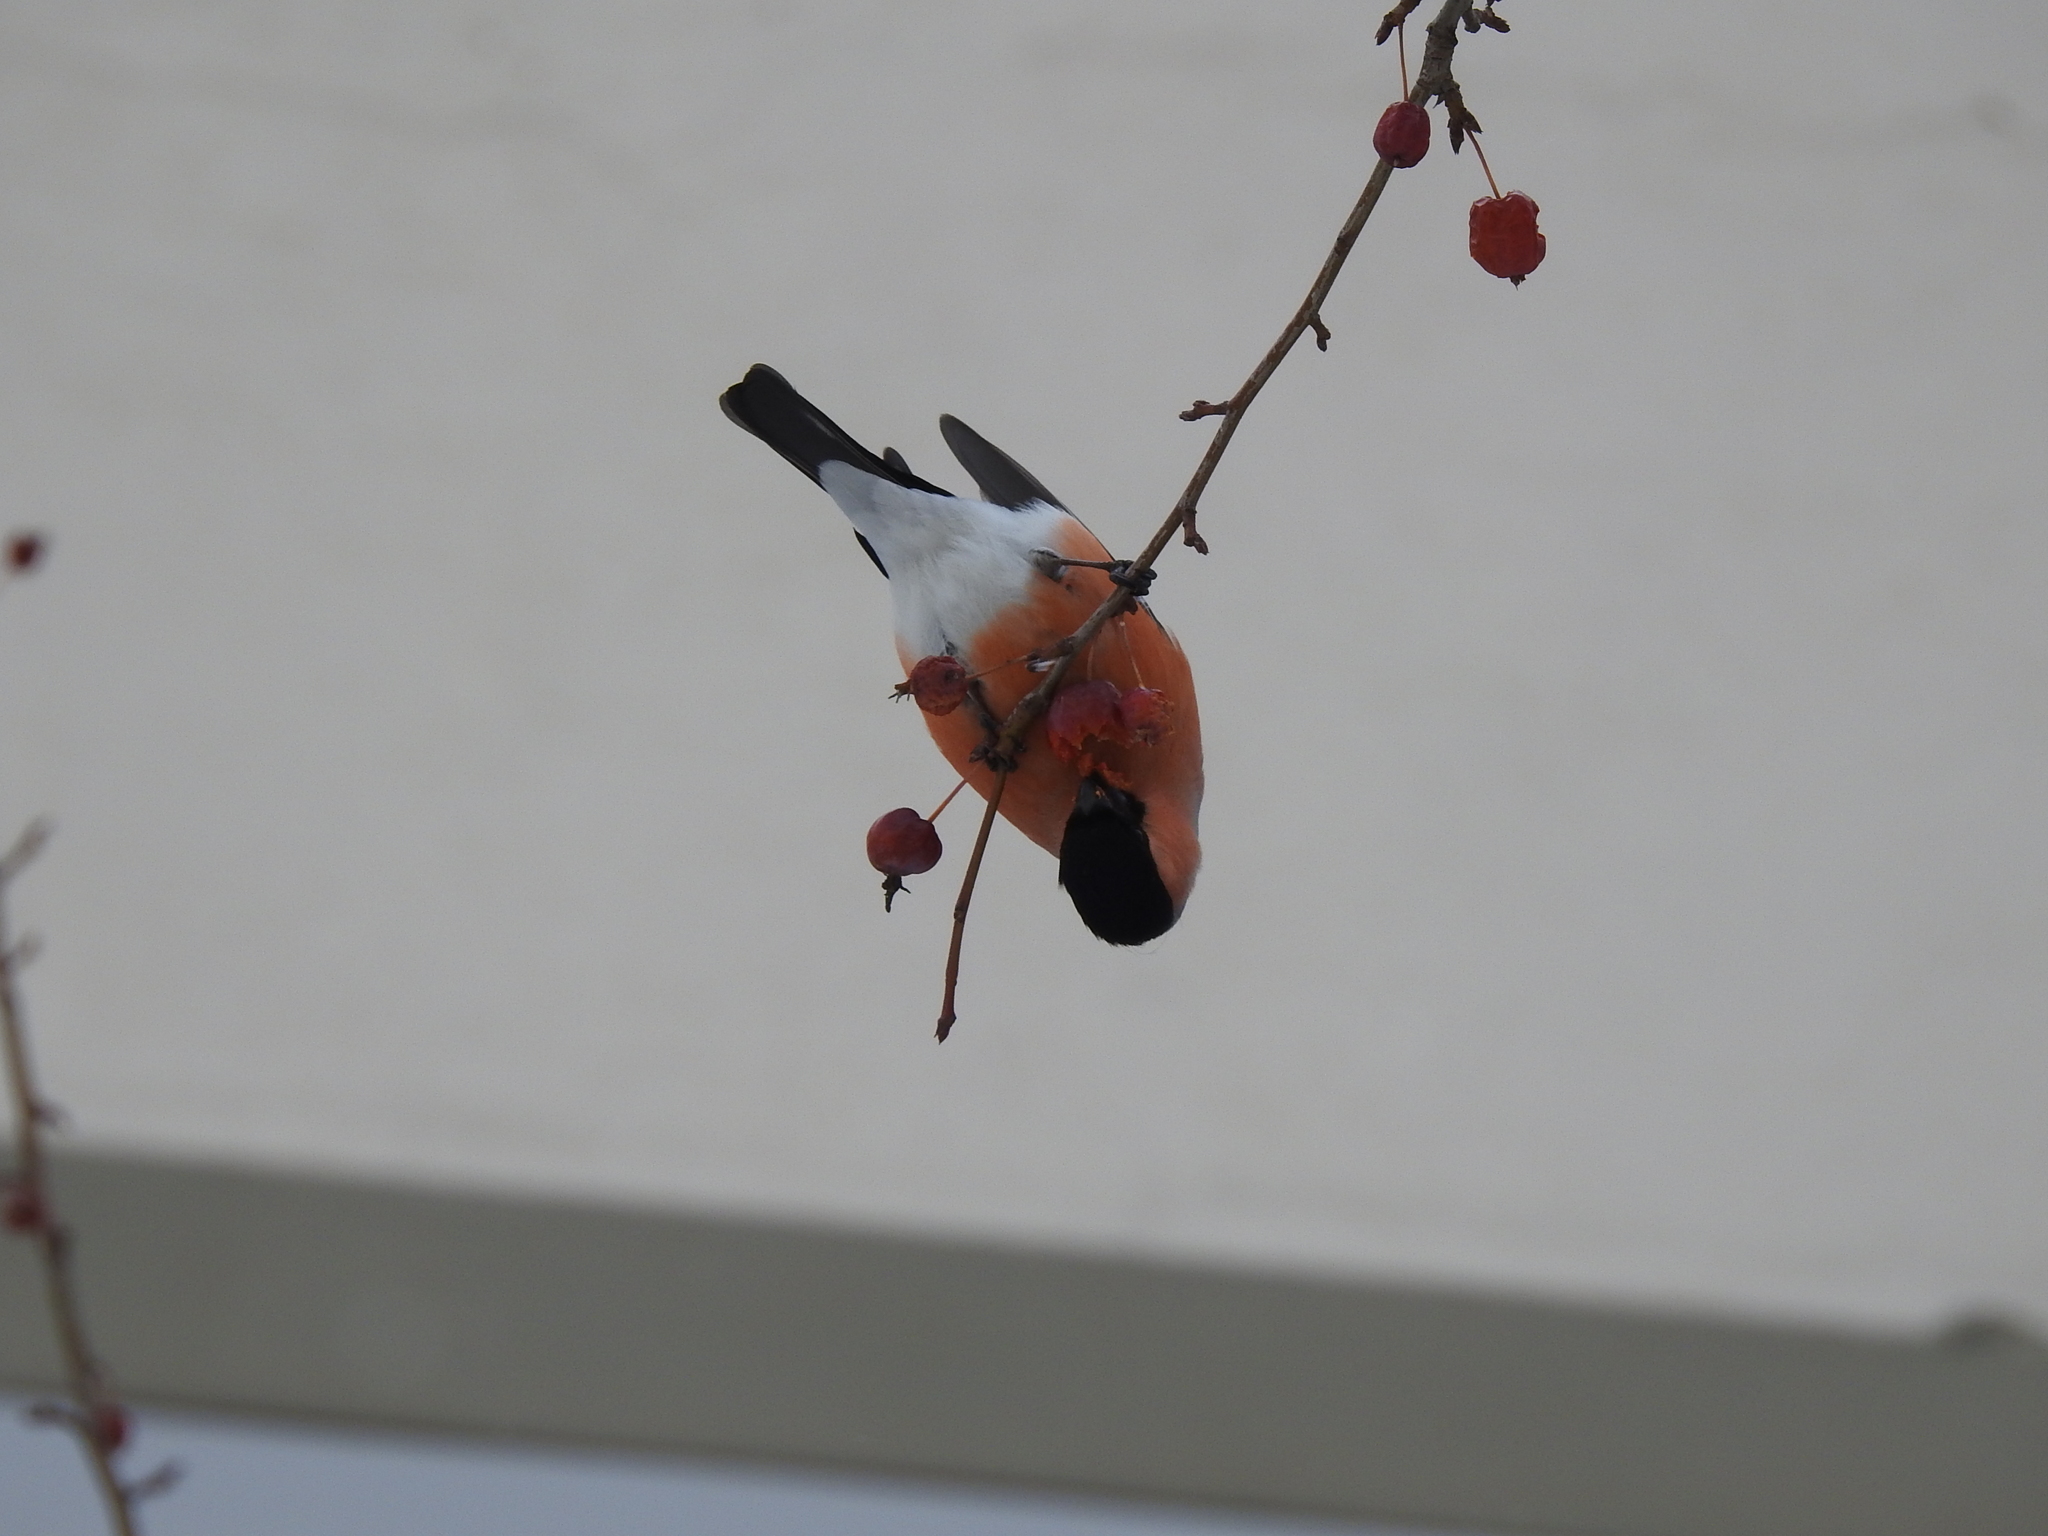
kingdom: Animalia
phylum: Chordata
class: Aves
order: Passeriformes
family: Fringillidae
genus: Pyrrhula
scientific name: Pyrrhula pyrrhula
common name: Eurasian bullfinch
